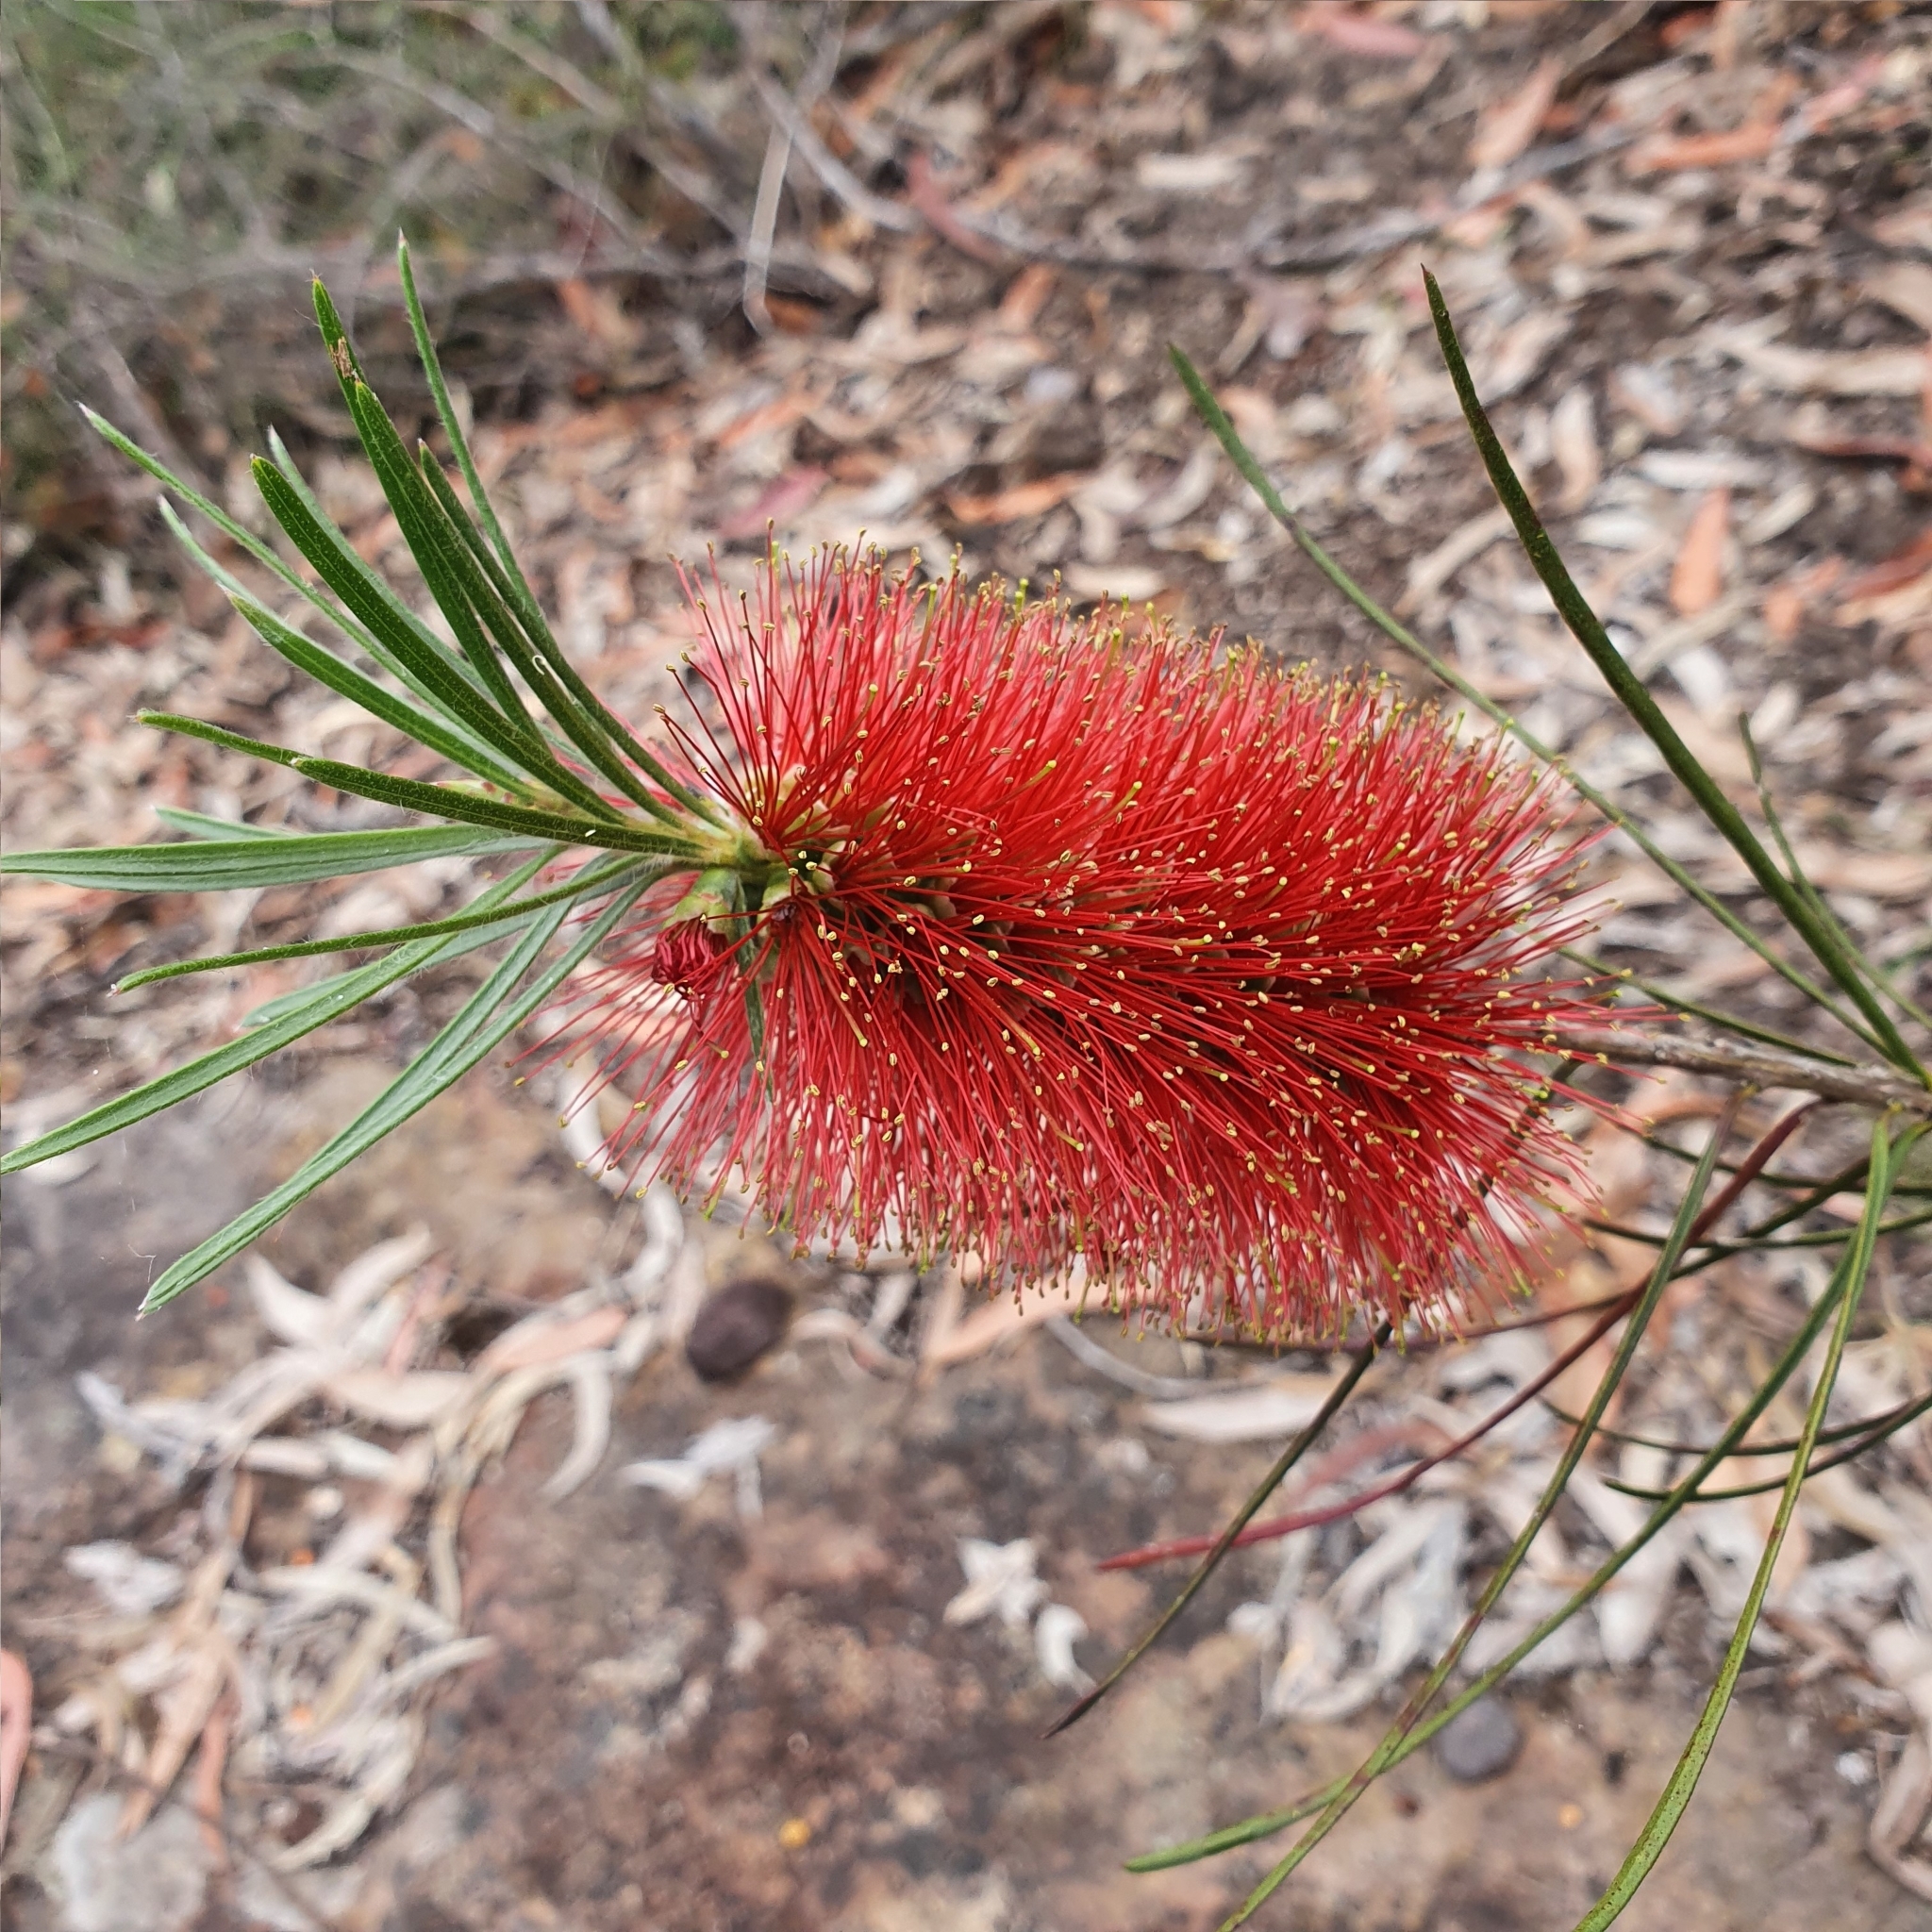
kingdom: Plantae
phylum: Tracheophyta
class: Magnoliopsida
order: Myrtales
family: Myrtaceae
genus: Callistemon
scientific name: Callistemon linearis
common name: Narrow-leaf bottlebrush
